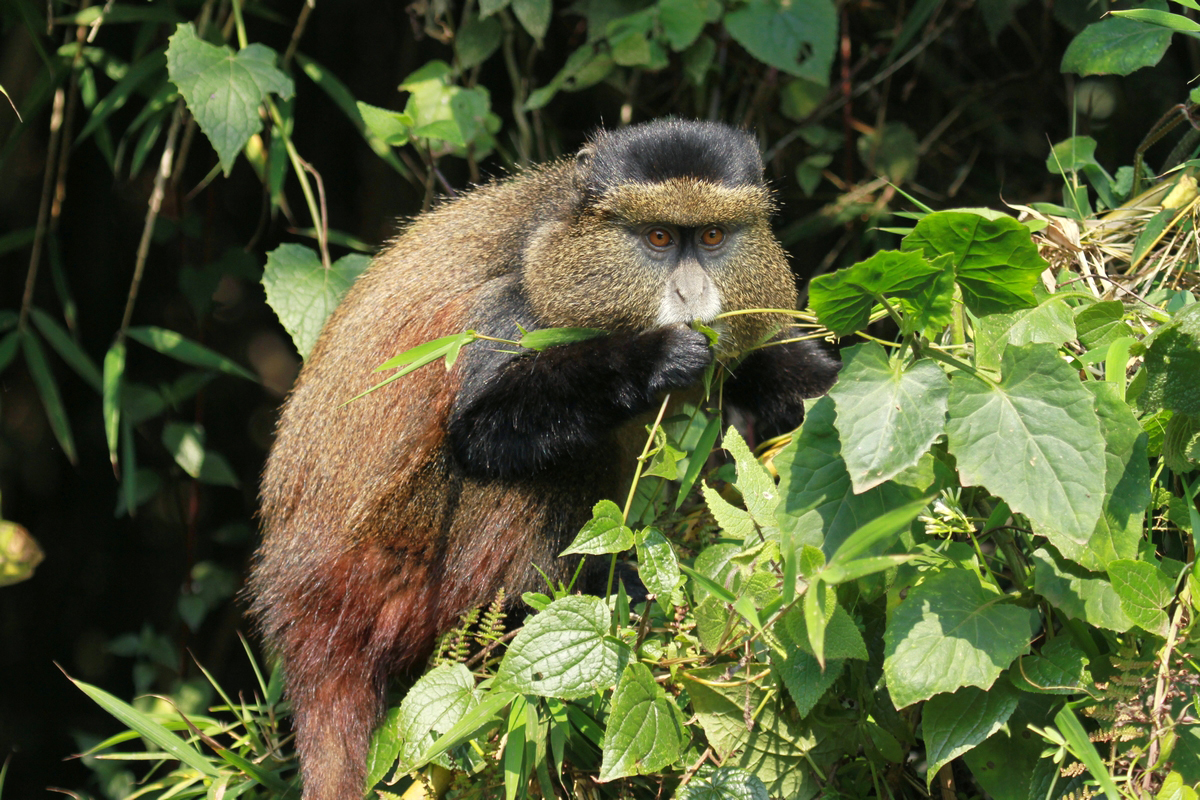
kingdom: Animalia
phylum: Chordata
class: Mammalia
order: Primates
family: Cercopithecidae
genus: Cercopithecus
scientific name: Cercopithecus mitis
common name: Blue monkey
